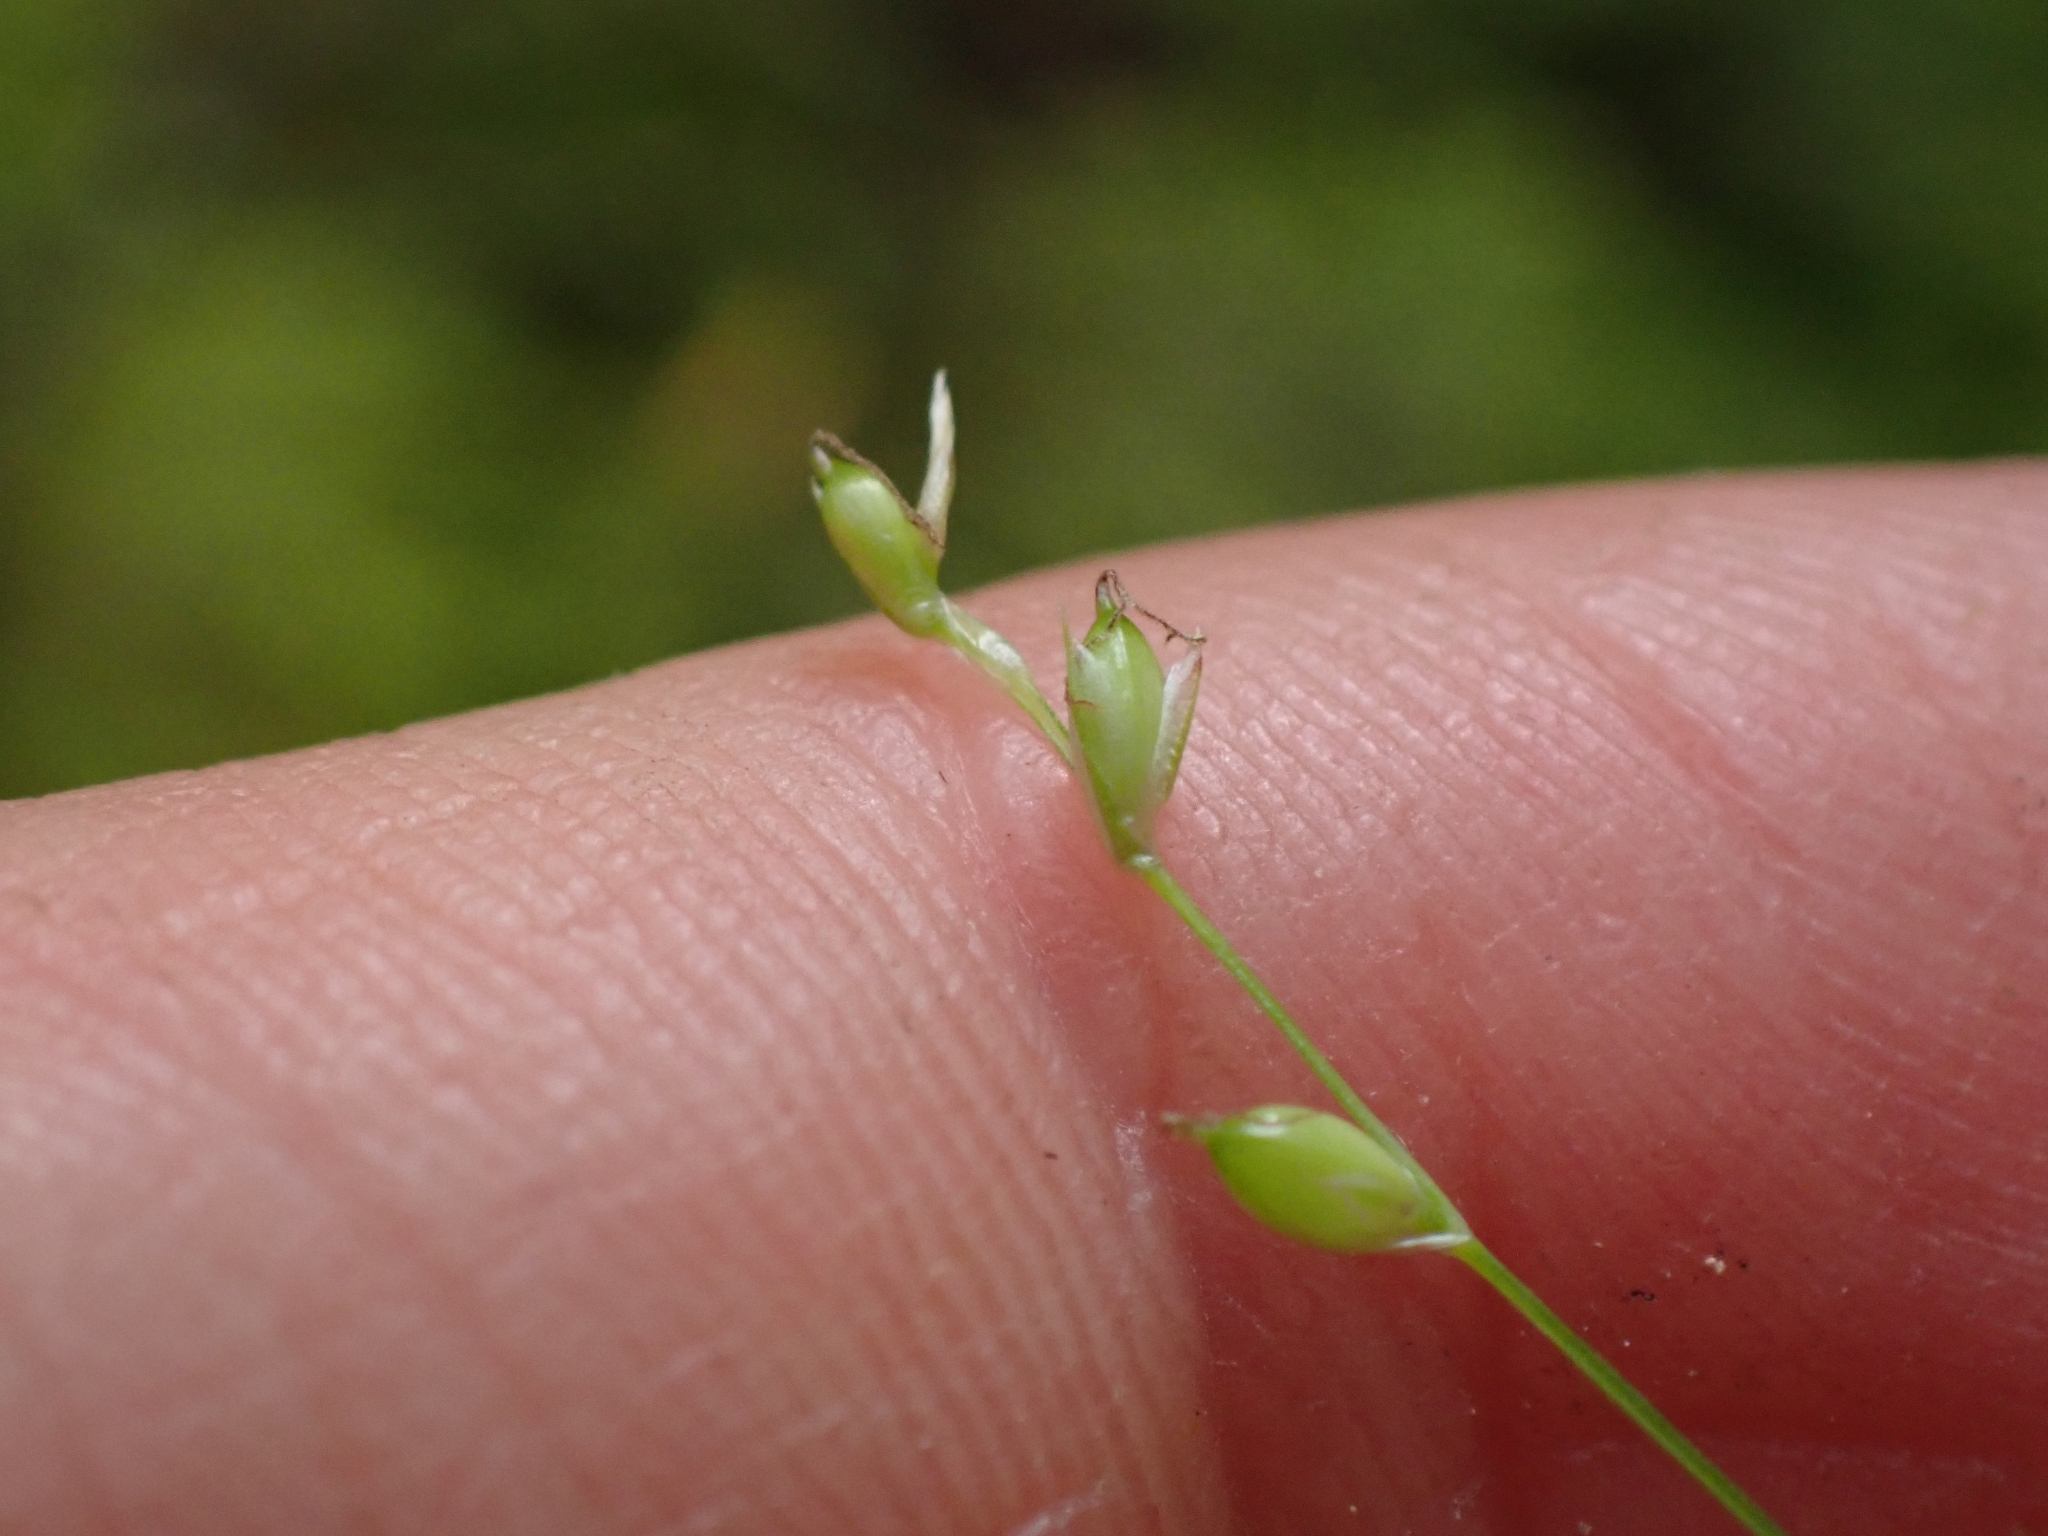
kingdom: Plantae
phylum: Tracheophyta
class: Liliopsida
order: Poales
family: Cyperaceae
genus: Carex
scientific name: Carex disperma
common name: Short-leaved sedge
